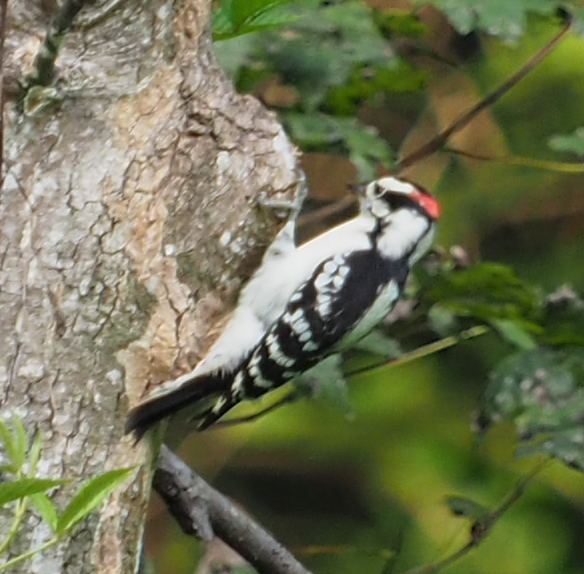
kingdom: Animalia
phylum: Chordata
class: Aves
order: Piciformes
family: Picidae
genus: Leuconotopicus
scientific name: Leuconotopicus villosus
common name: Hairy woodpecker
